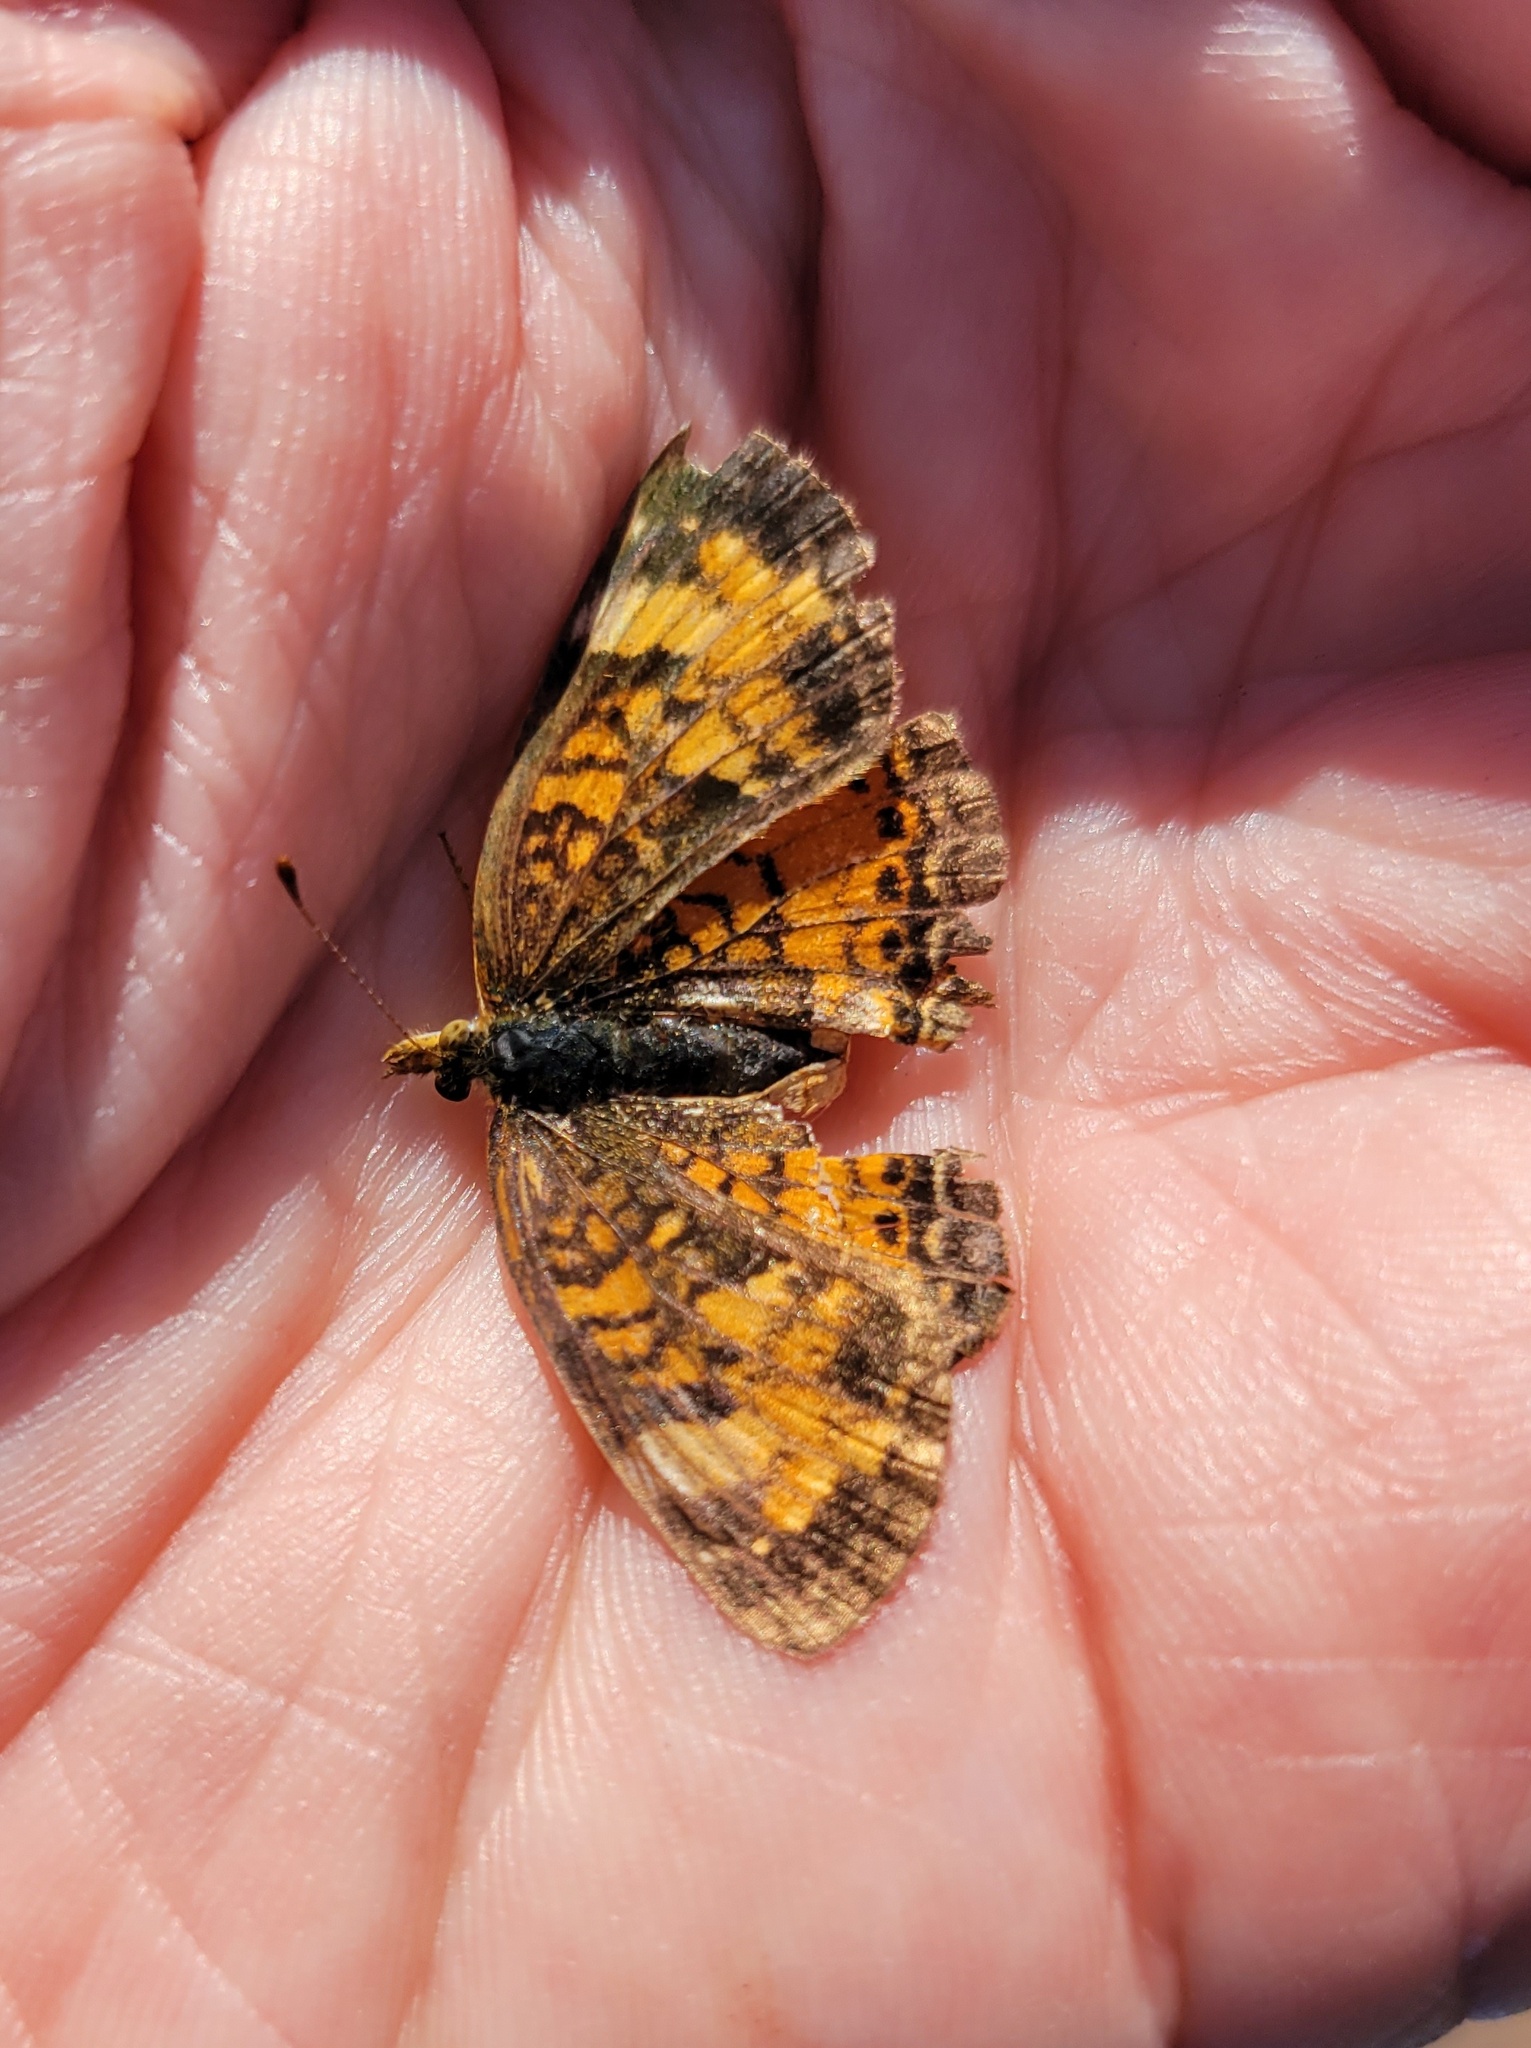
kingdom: Animalia
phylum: Arthropoda
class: Insecta
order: Lepidoptera
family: Nymphalidae
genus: Phyciodes
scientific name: Phyciodes tharos
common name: Pearl crescent
